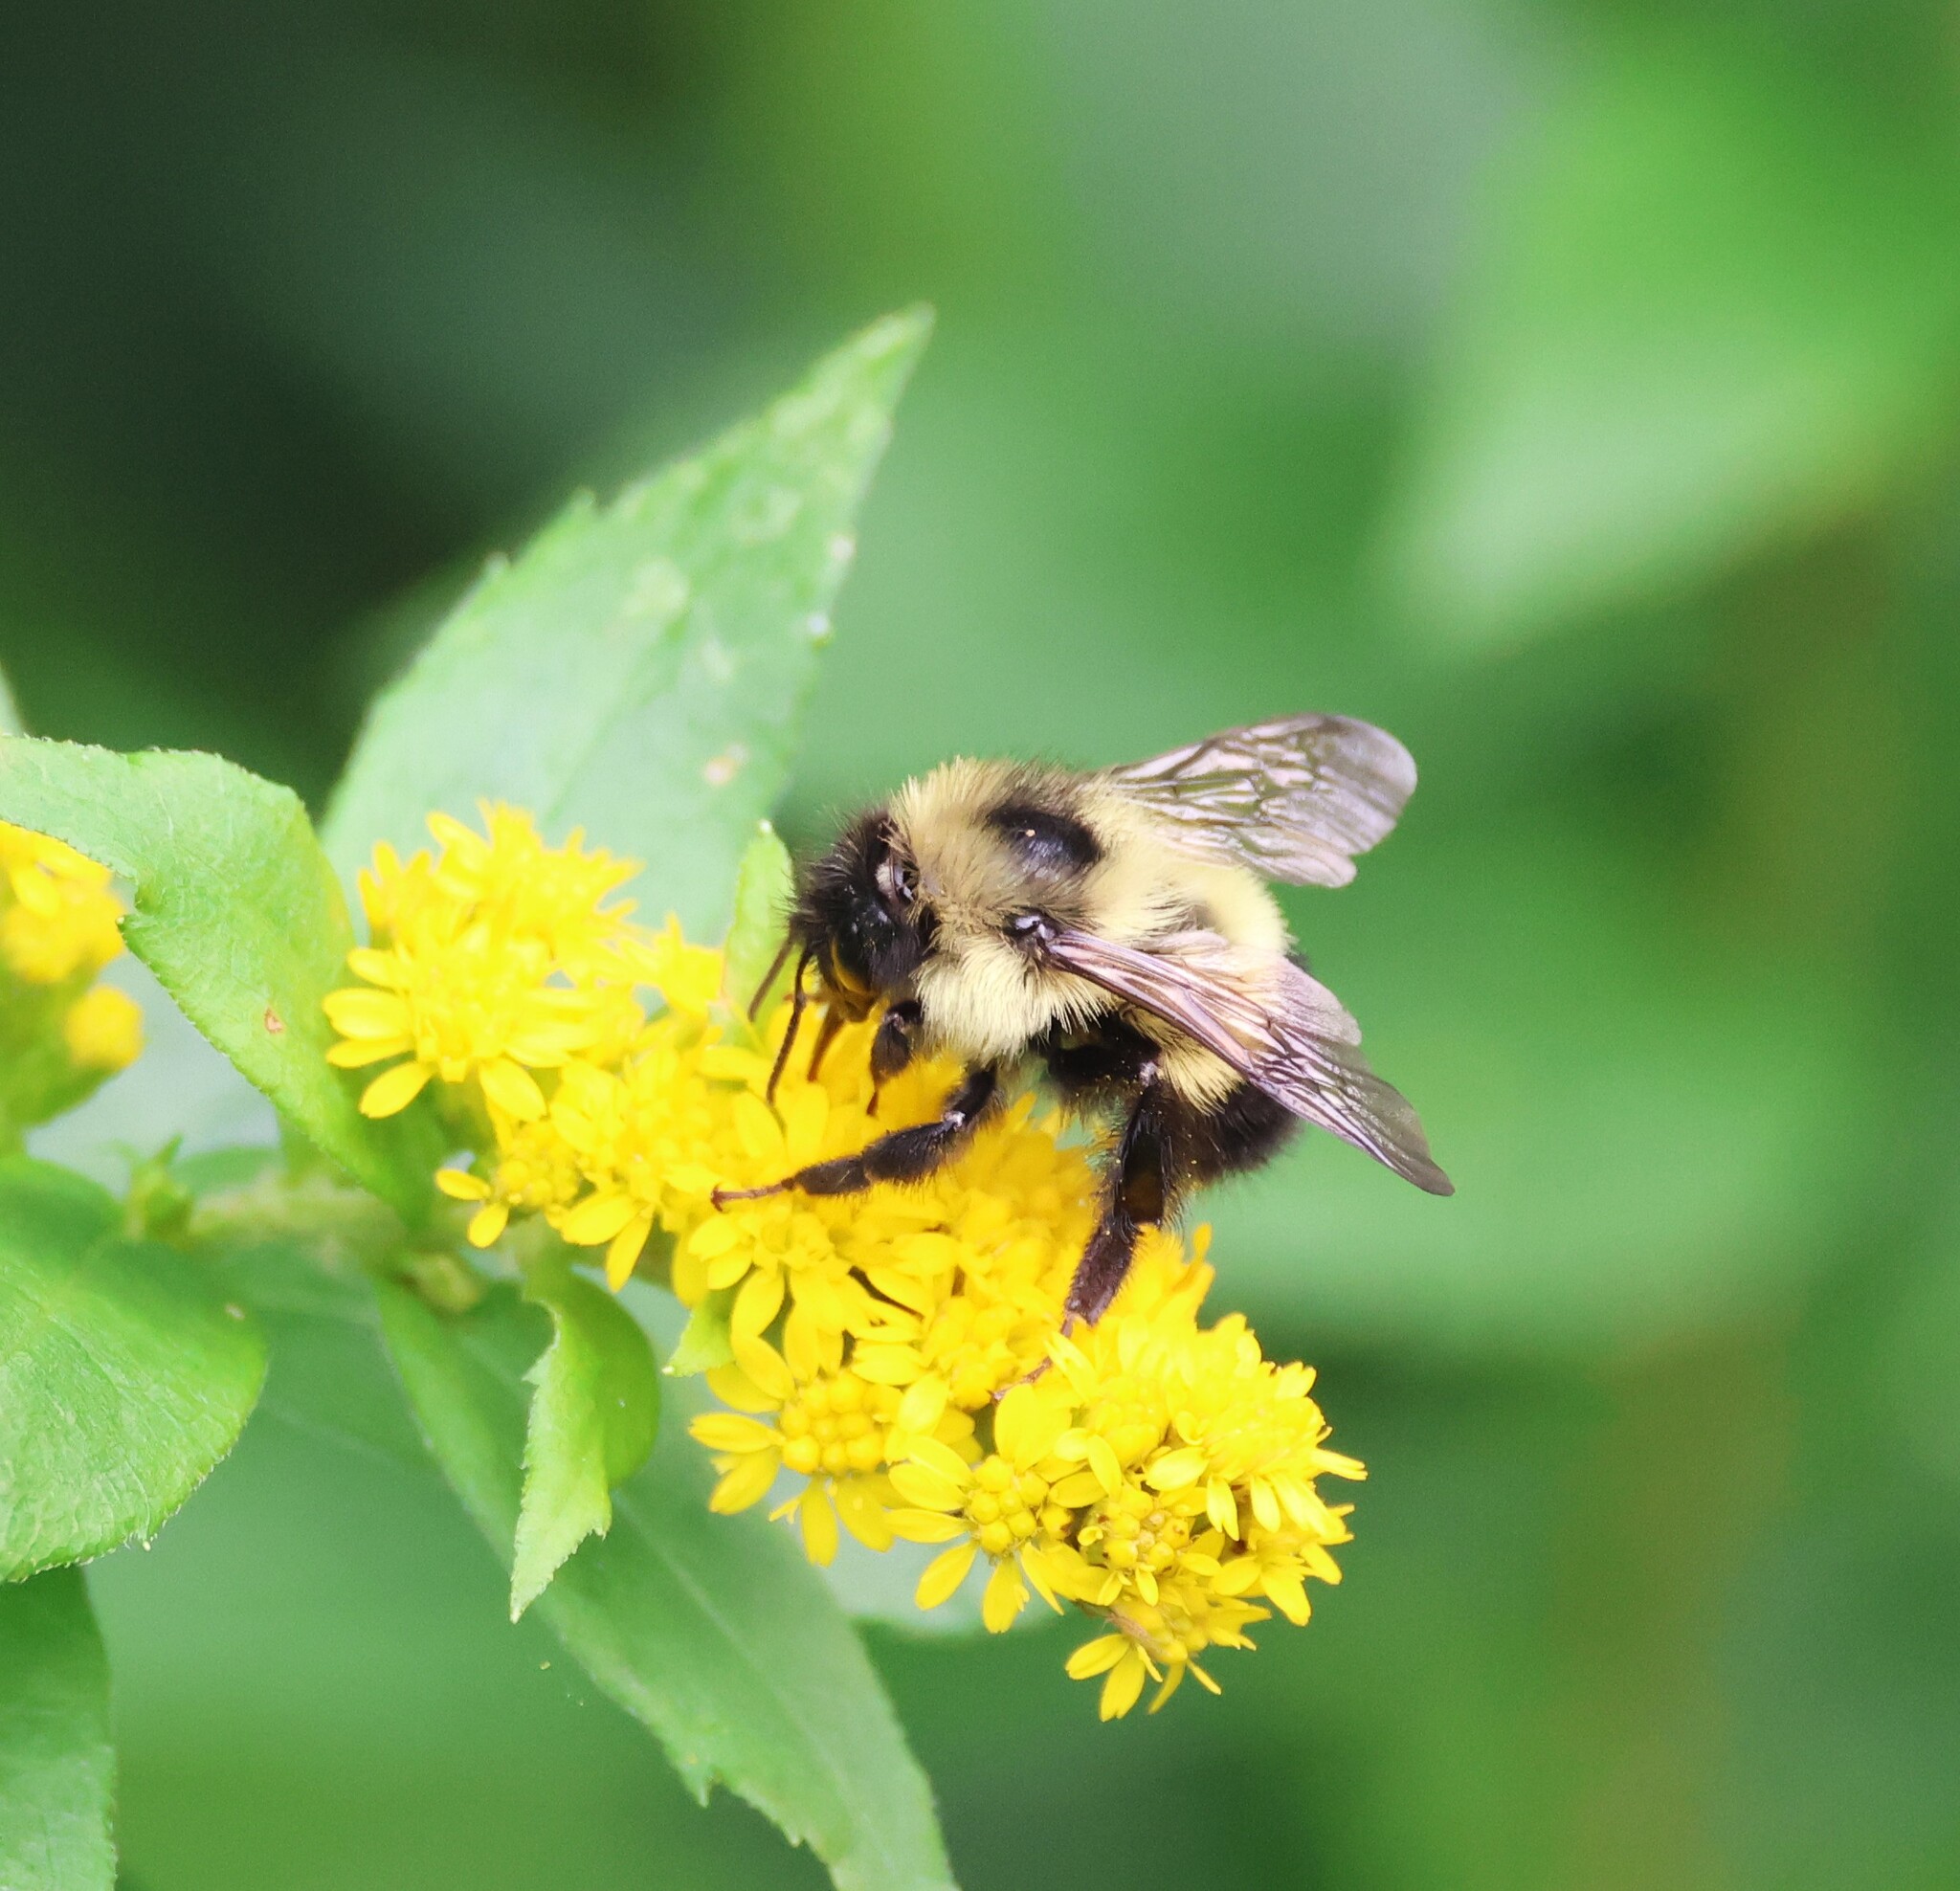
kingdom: Animalia
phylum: Arthropoda
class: Insecta
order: Hymenoptera
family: Apidae
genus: Bombus
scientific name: Bombus vagans
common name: Half-black bumble bee
